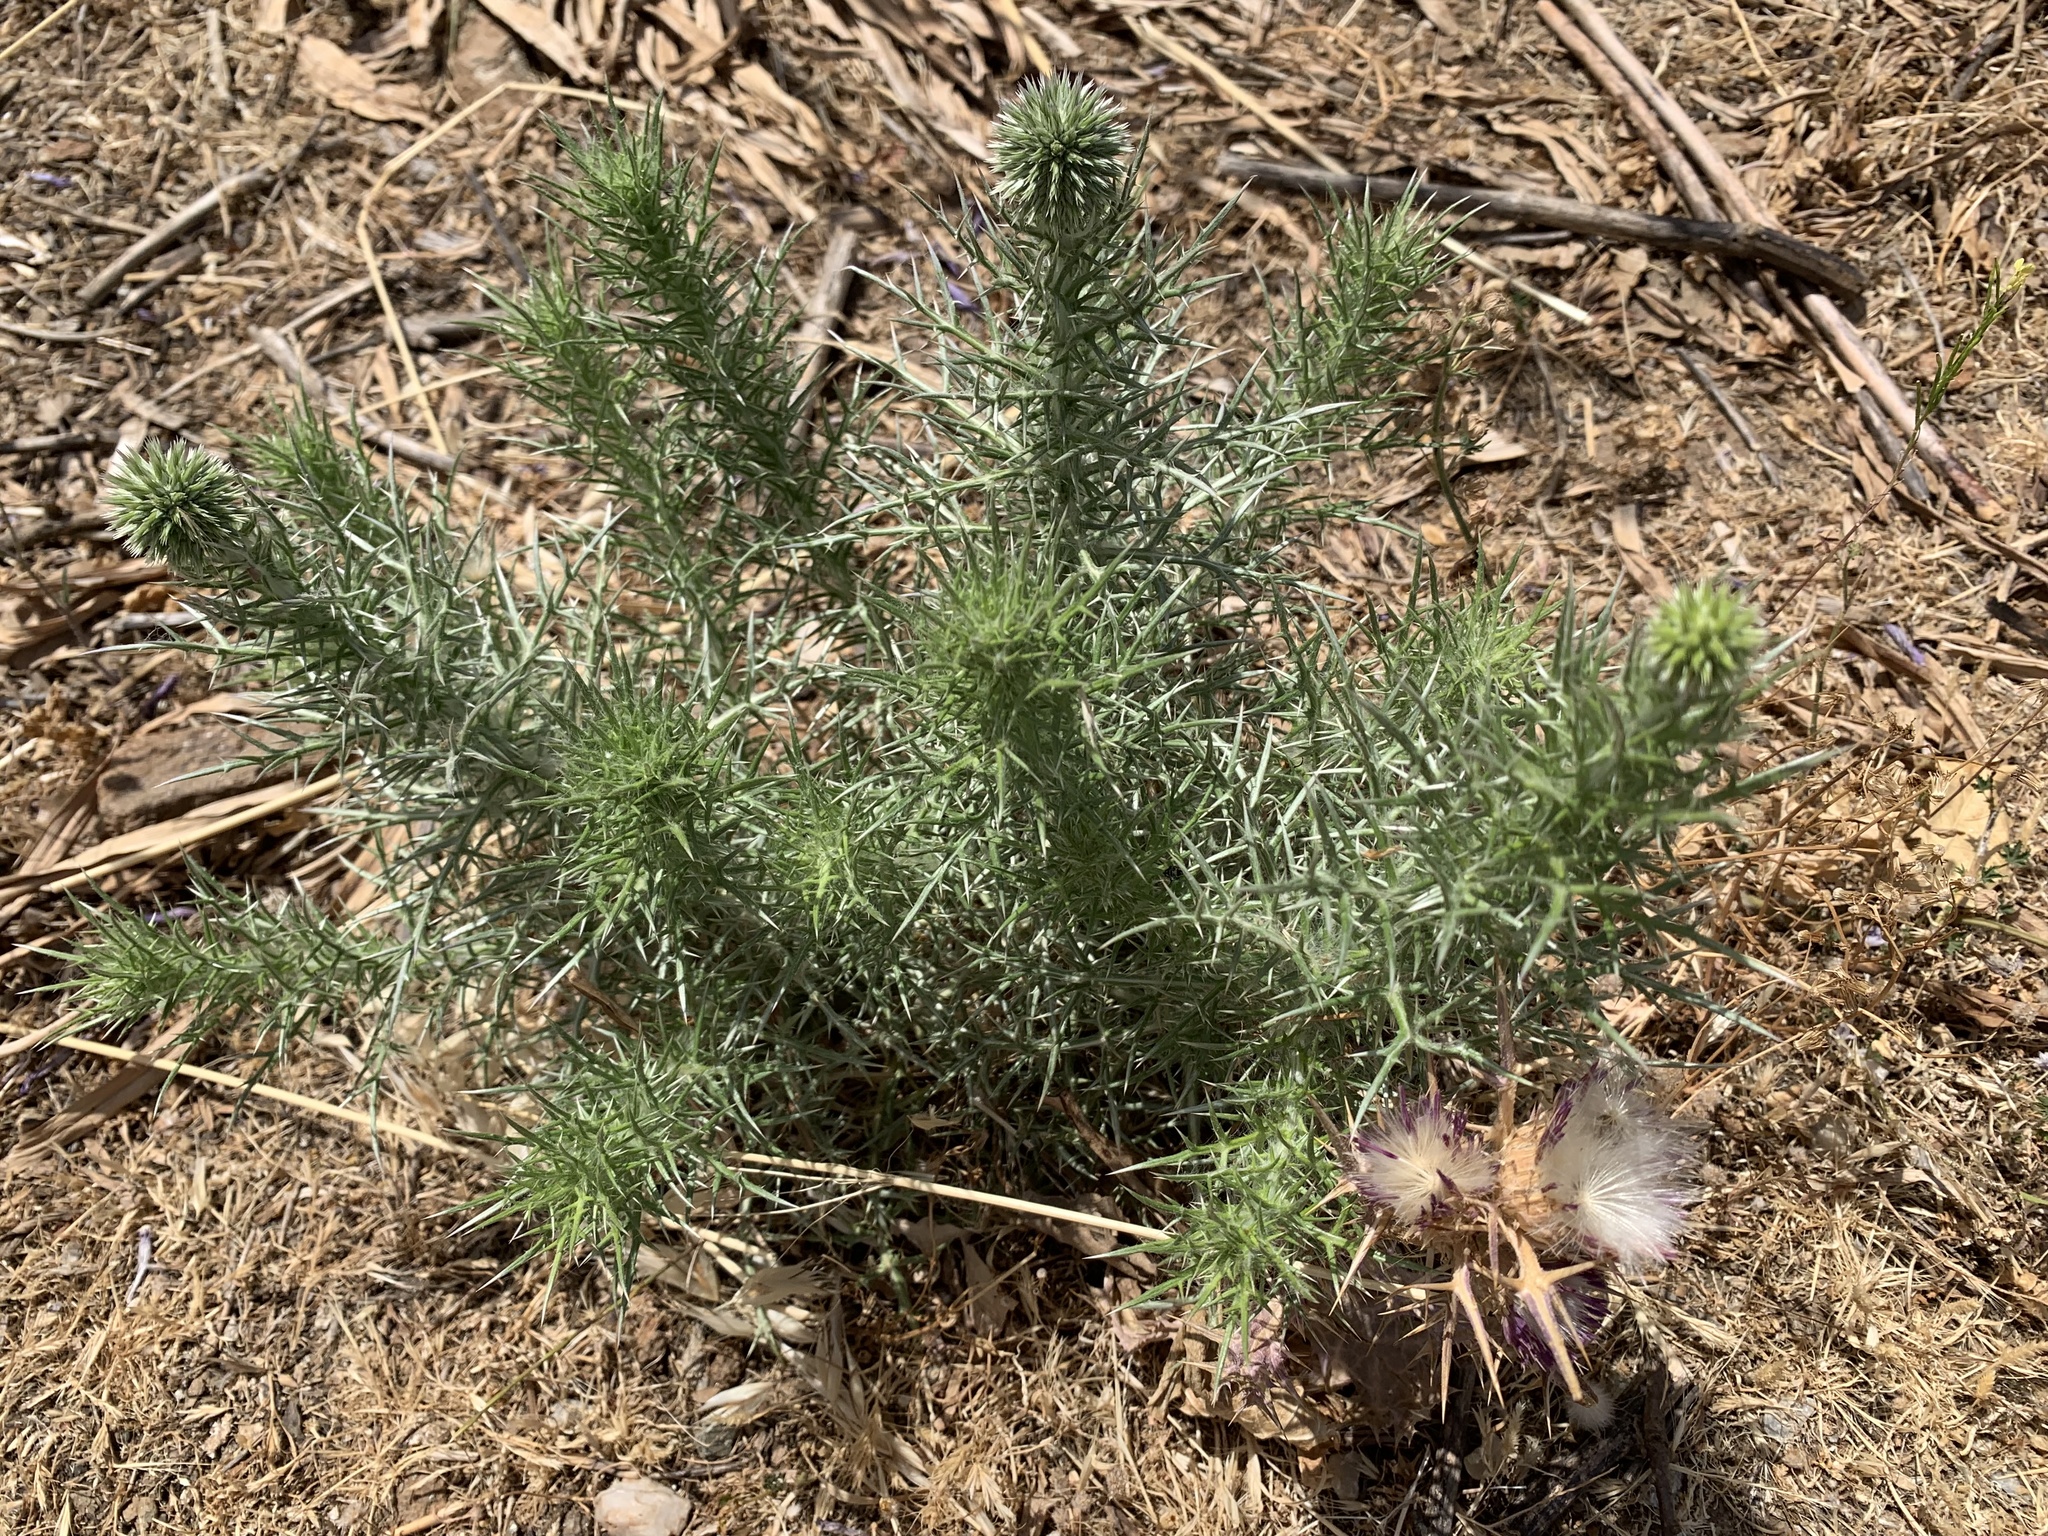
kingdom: Plantae
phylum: Tracheophyta
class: Magnoliopsida
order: Asterales
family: Asteraceae
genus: Echinops
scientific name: Echinops graecus
